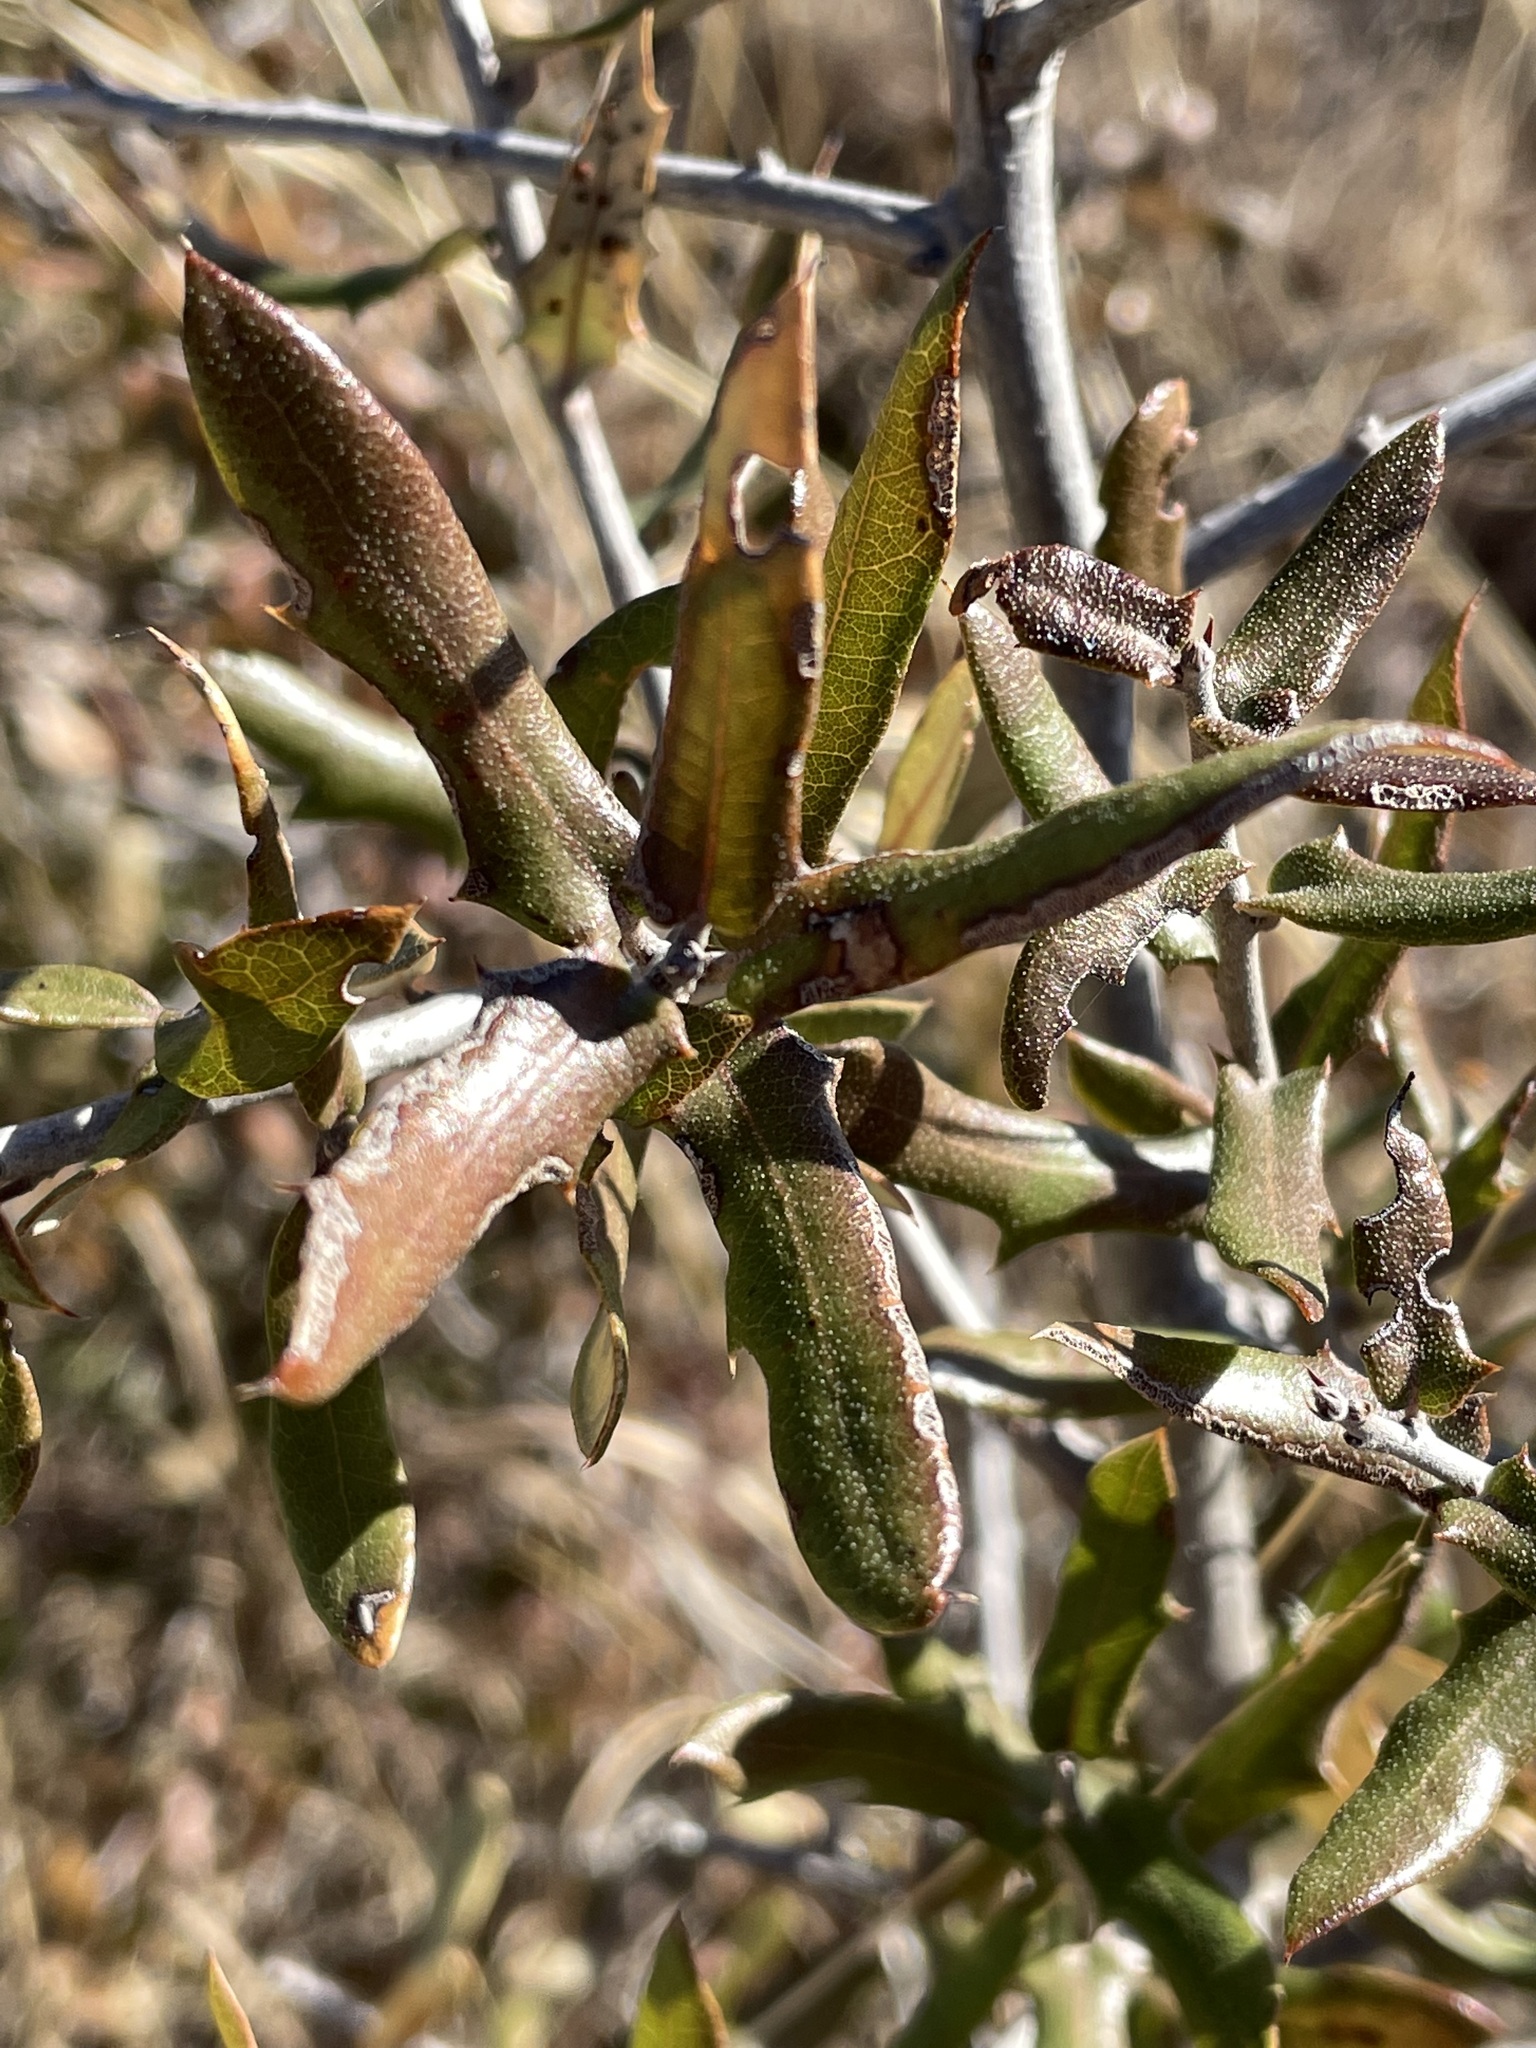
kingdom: Plantae
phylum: Tracheophyta
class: Magnoliopsida
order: Fagales
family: Fagaceae
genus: Quercus
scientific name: Quercus fusiformis
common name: Texas live oak
